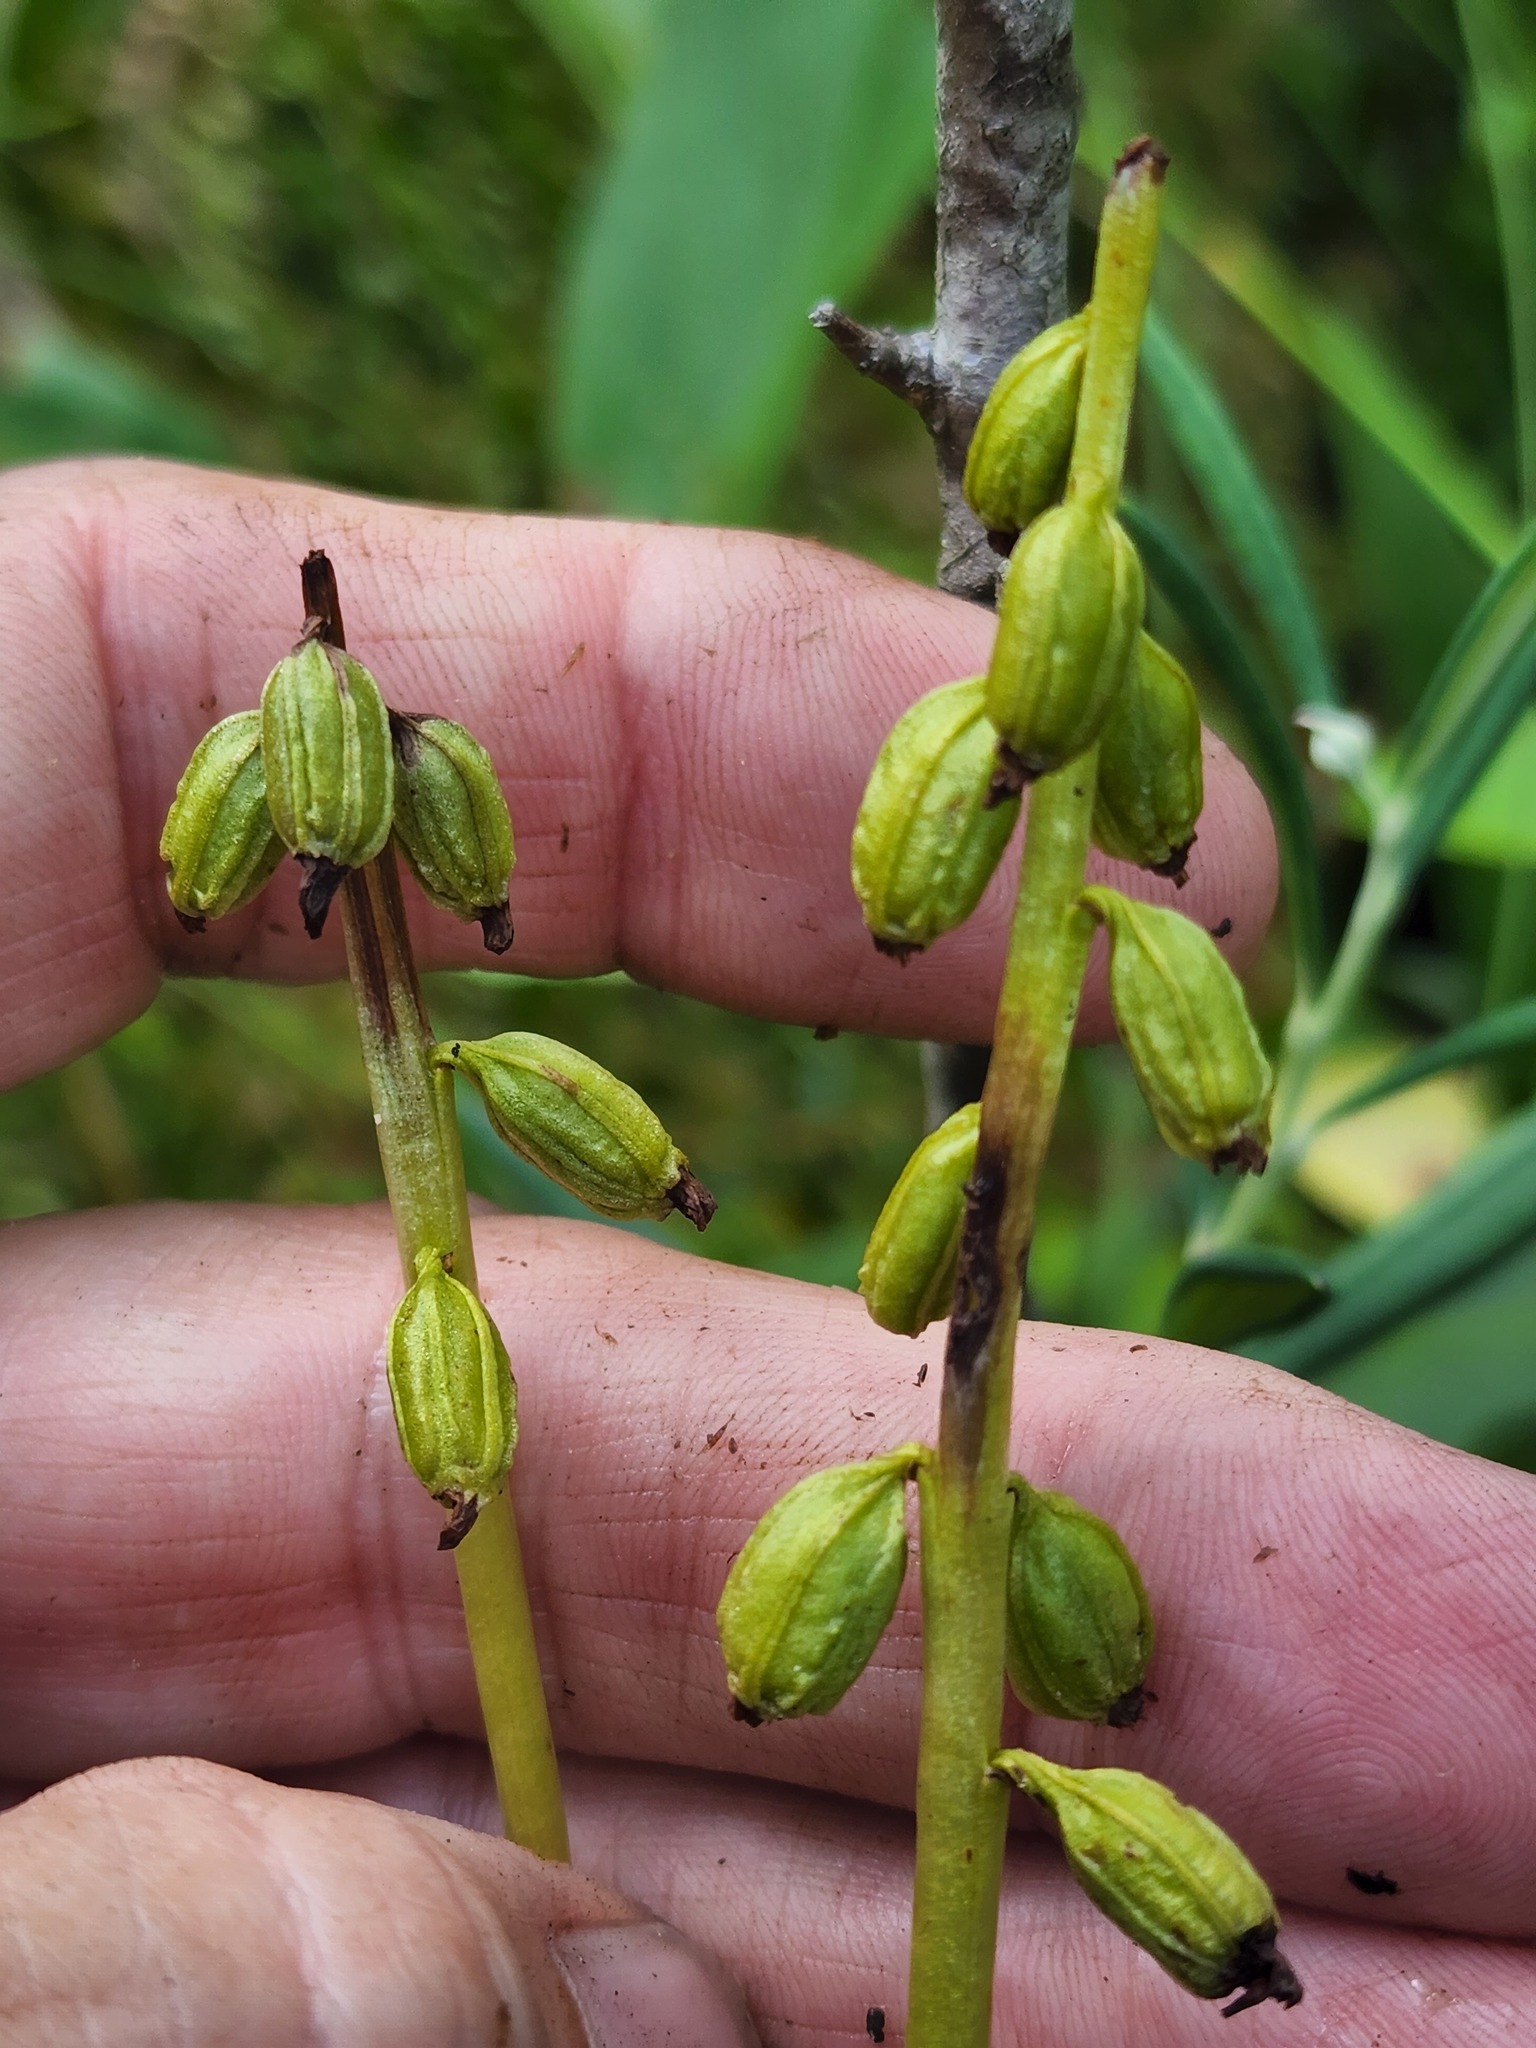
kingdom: Plantae
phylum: Tracheophyta
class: Liliopsida
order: Asparagales
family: Orchidaceae
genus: Corallorhiza
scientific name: Corallorhiza trifida
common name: Yellow coralroot
